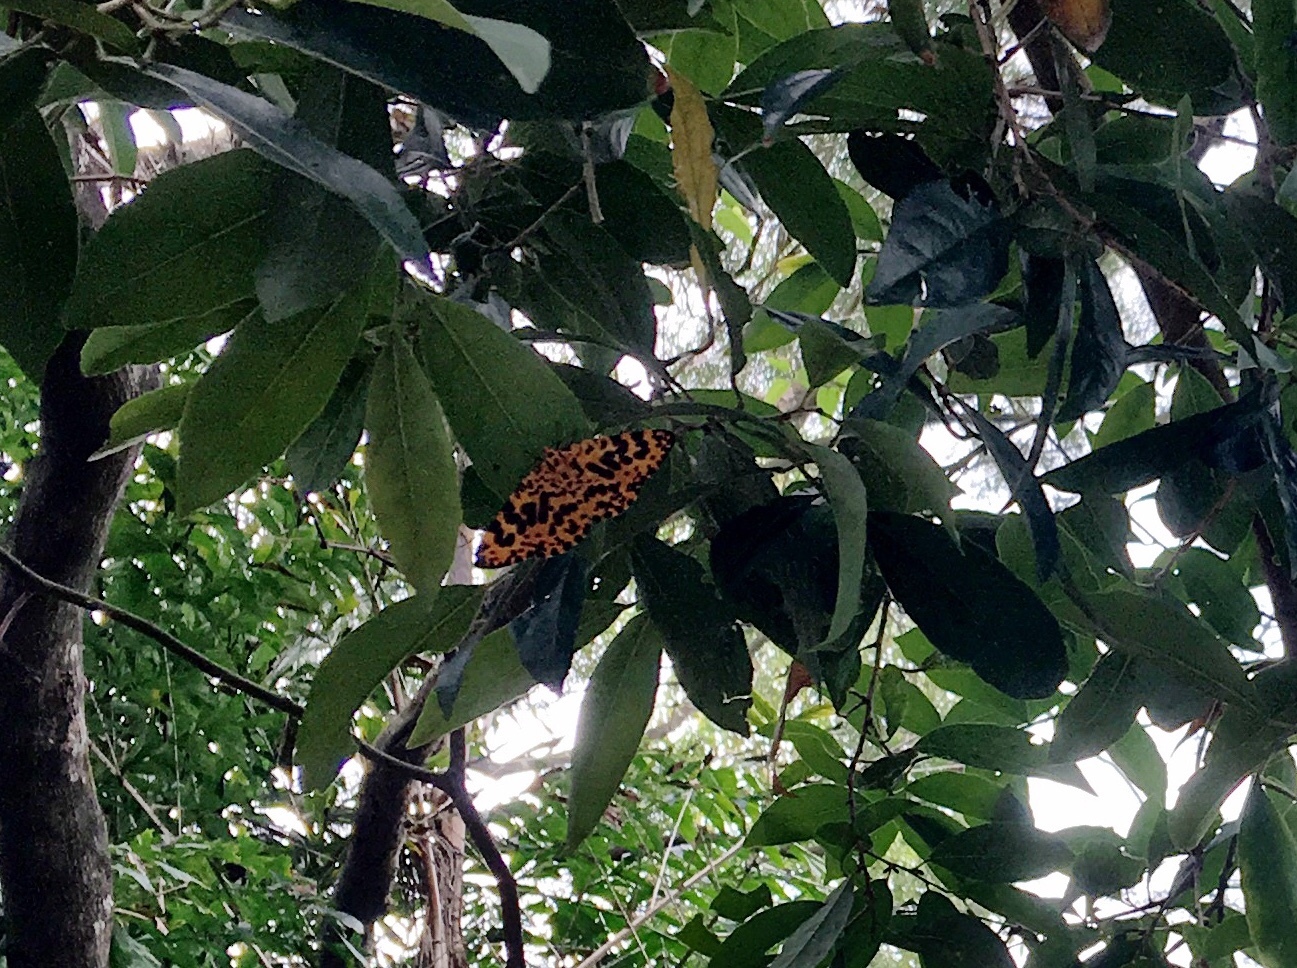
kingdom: Animalia
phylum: Arthropoda
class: Insecta
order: Lepidoptera
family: Geometridae
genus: Obeidia
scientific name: Obeidia Epobeidia tigrata
